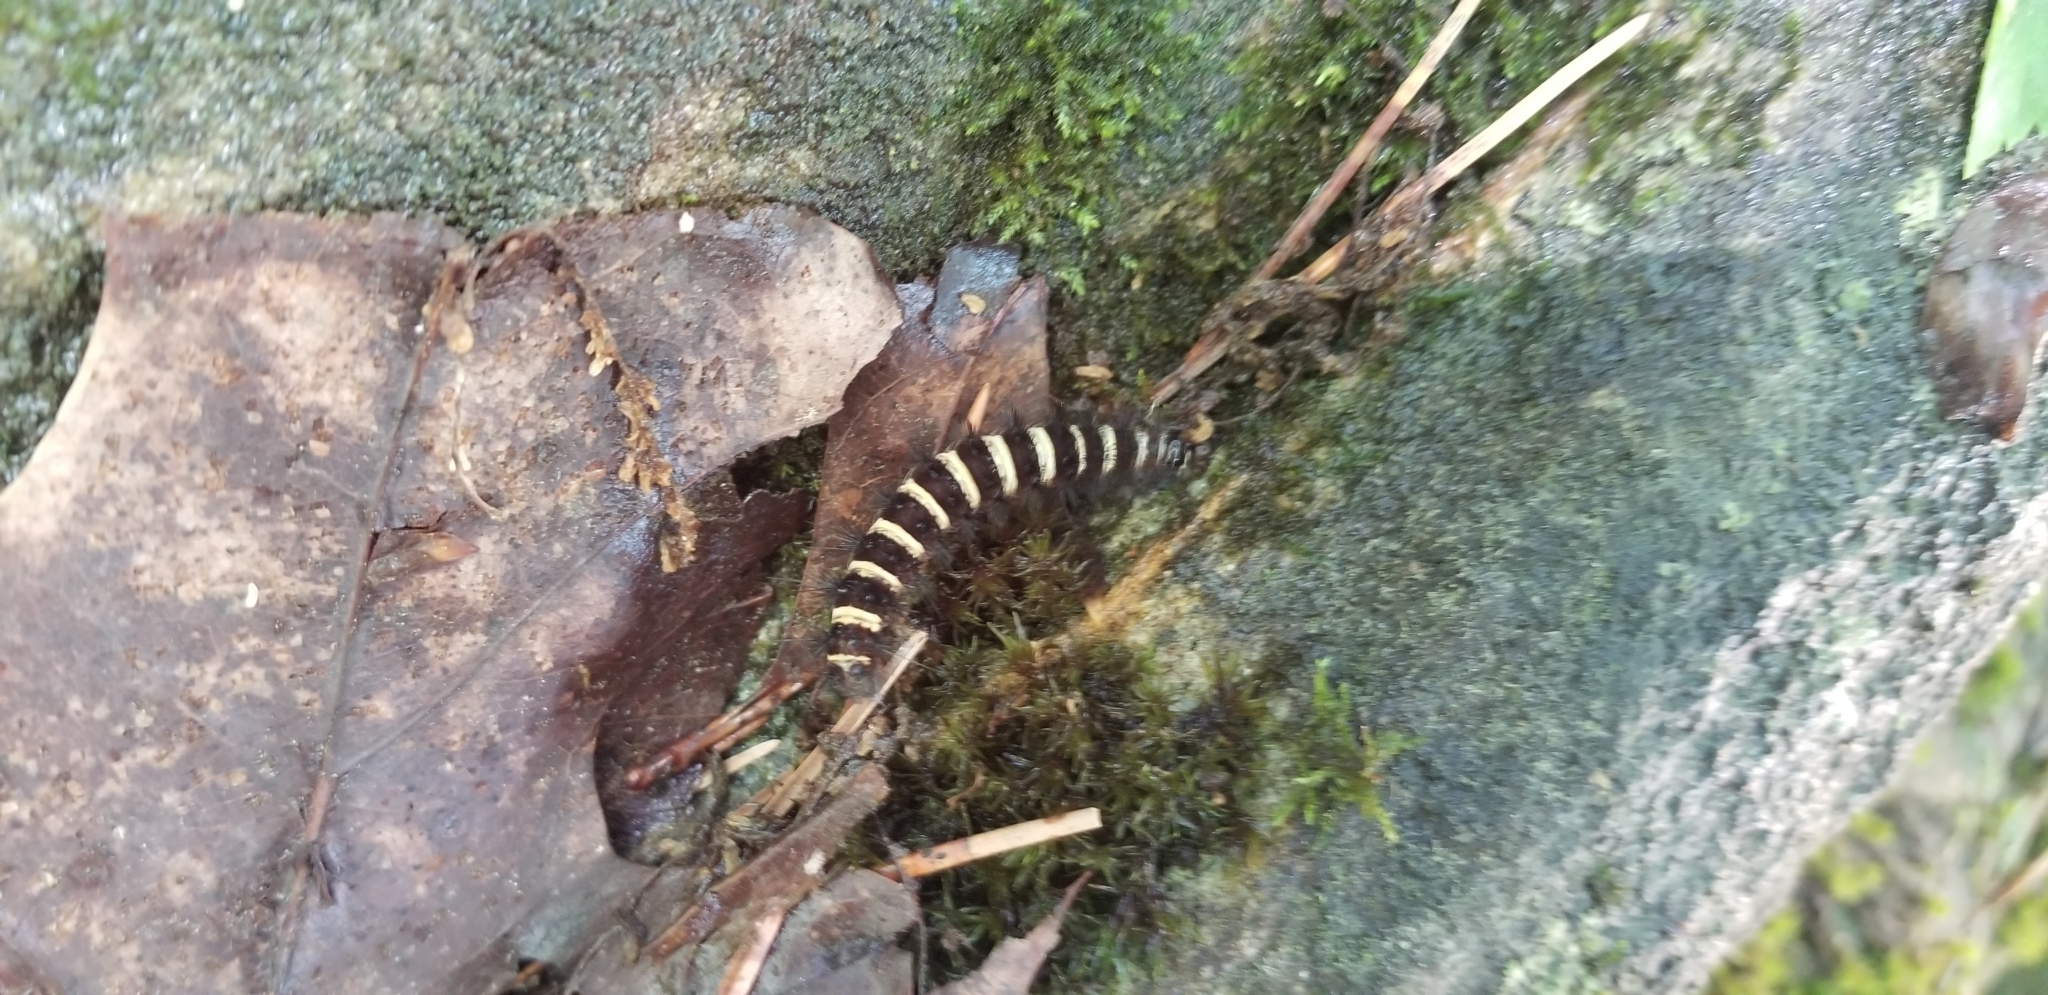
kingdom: Animalia
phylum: Arthropoda
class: Insecta
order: Lepidoptera
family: Erebidae
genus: Spilosoma
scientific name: Spilosoma congrua
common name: Agreeable tiger moth
